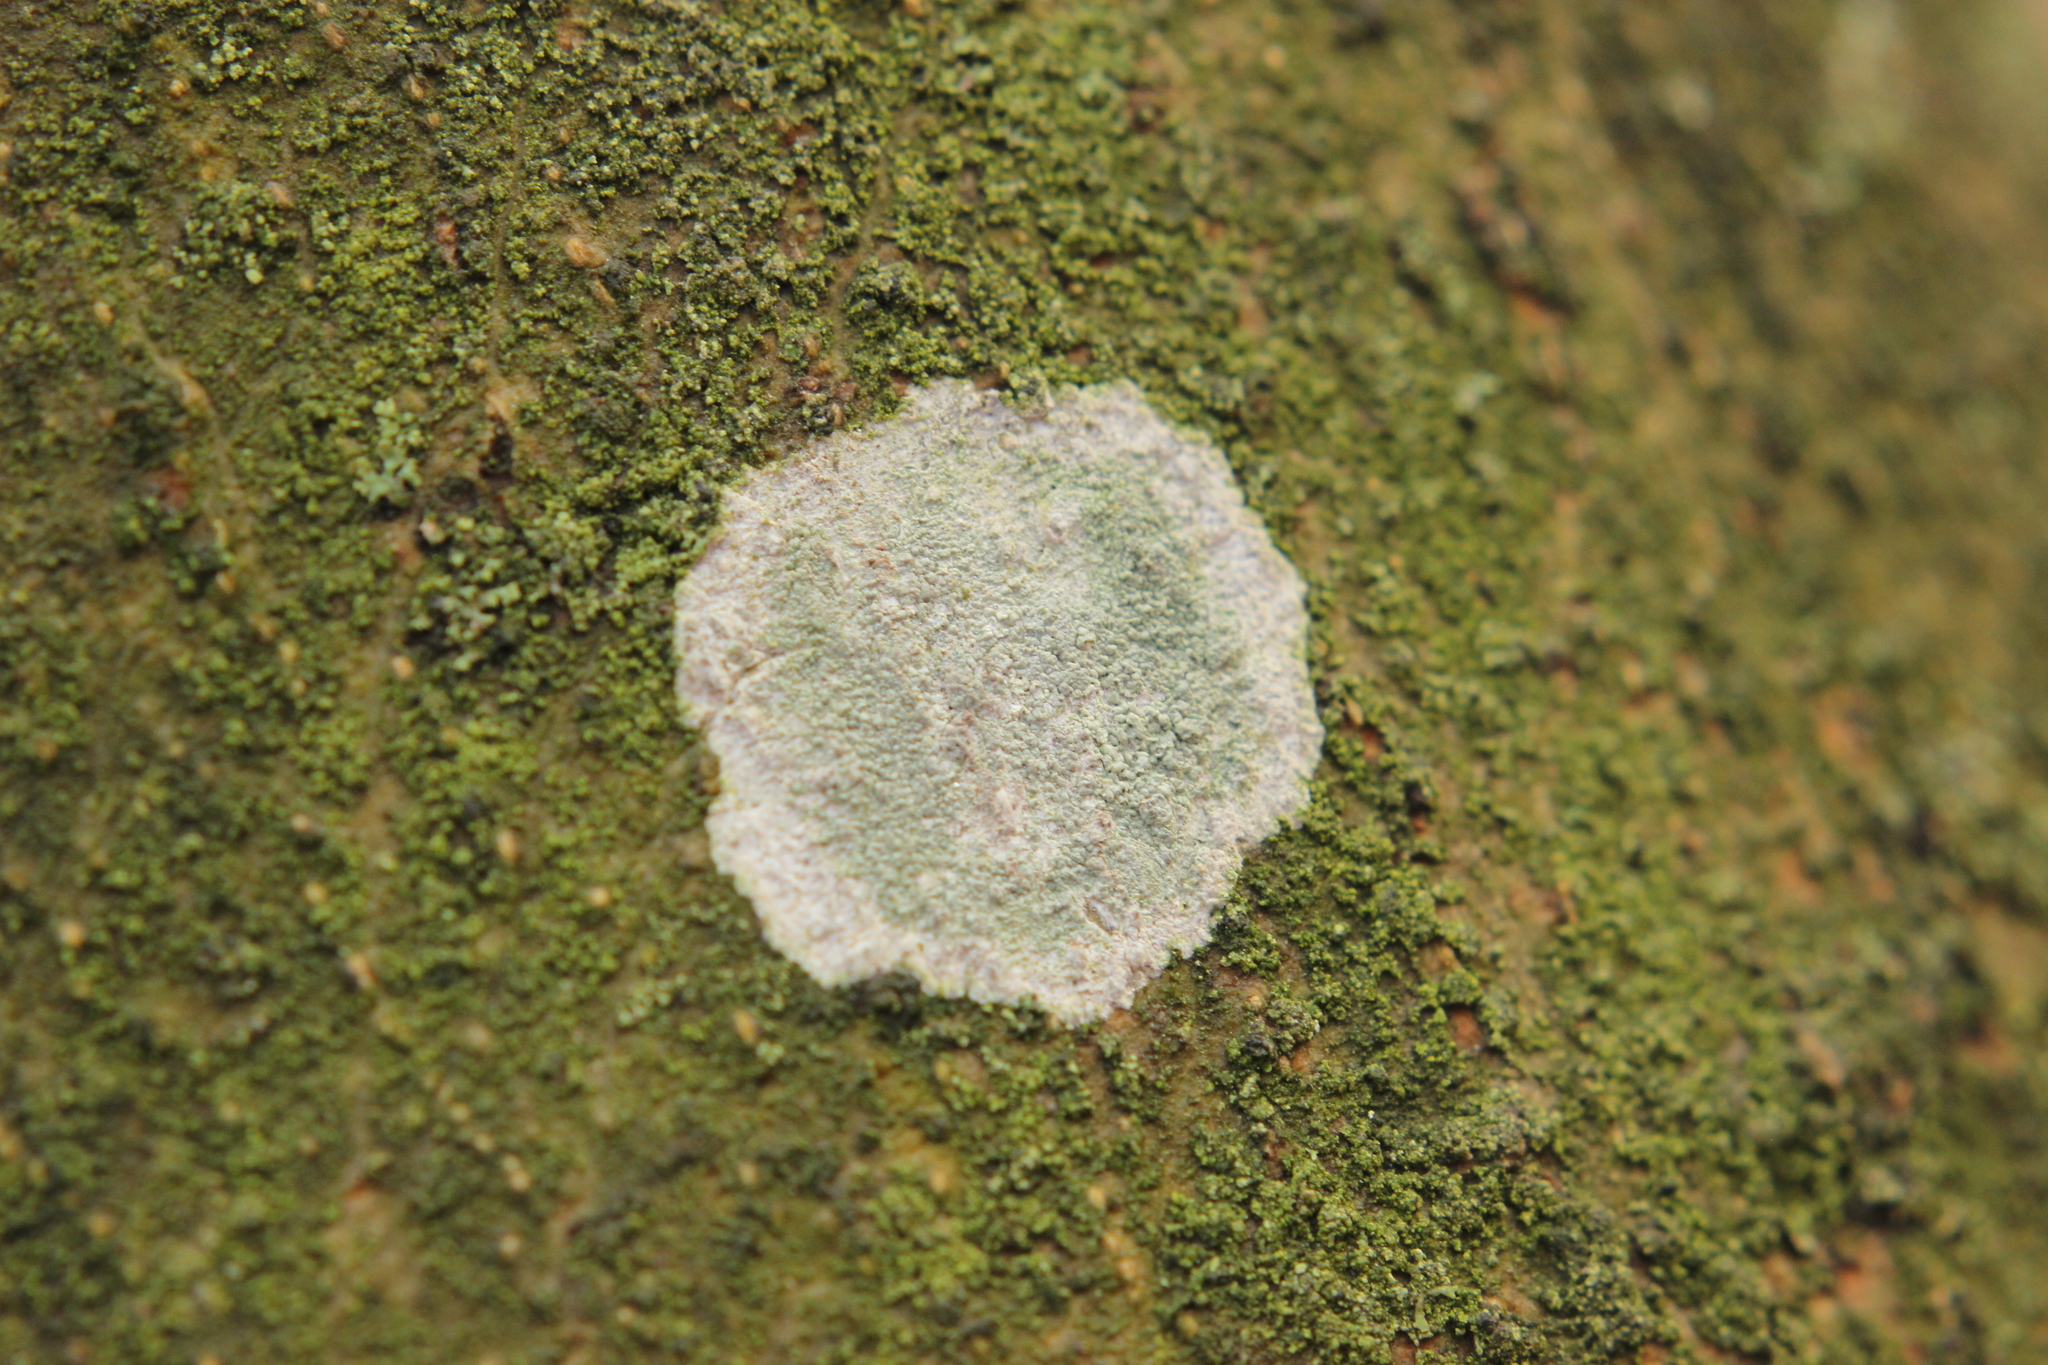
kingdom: Fungi
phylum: Ascomycota
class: Lecanoromycetes
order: Ostropales
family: Phlyctidaceae
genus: Phlyctis
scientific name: Phlyctis argena
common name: Whitewash lichen
